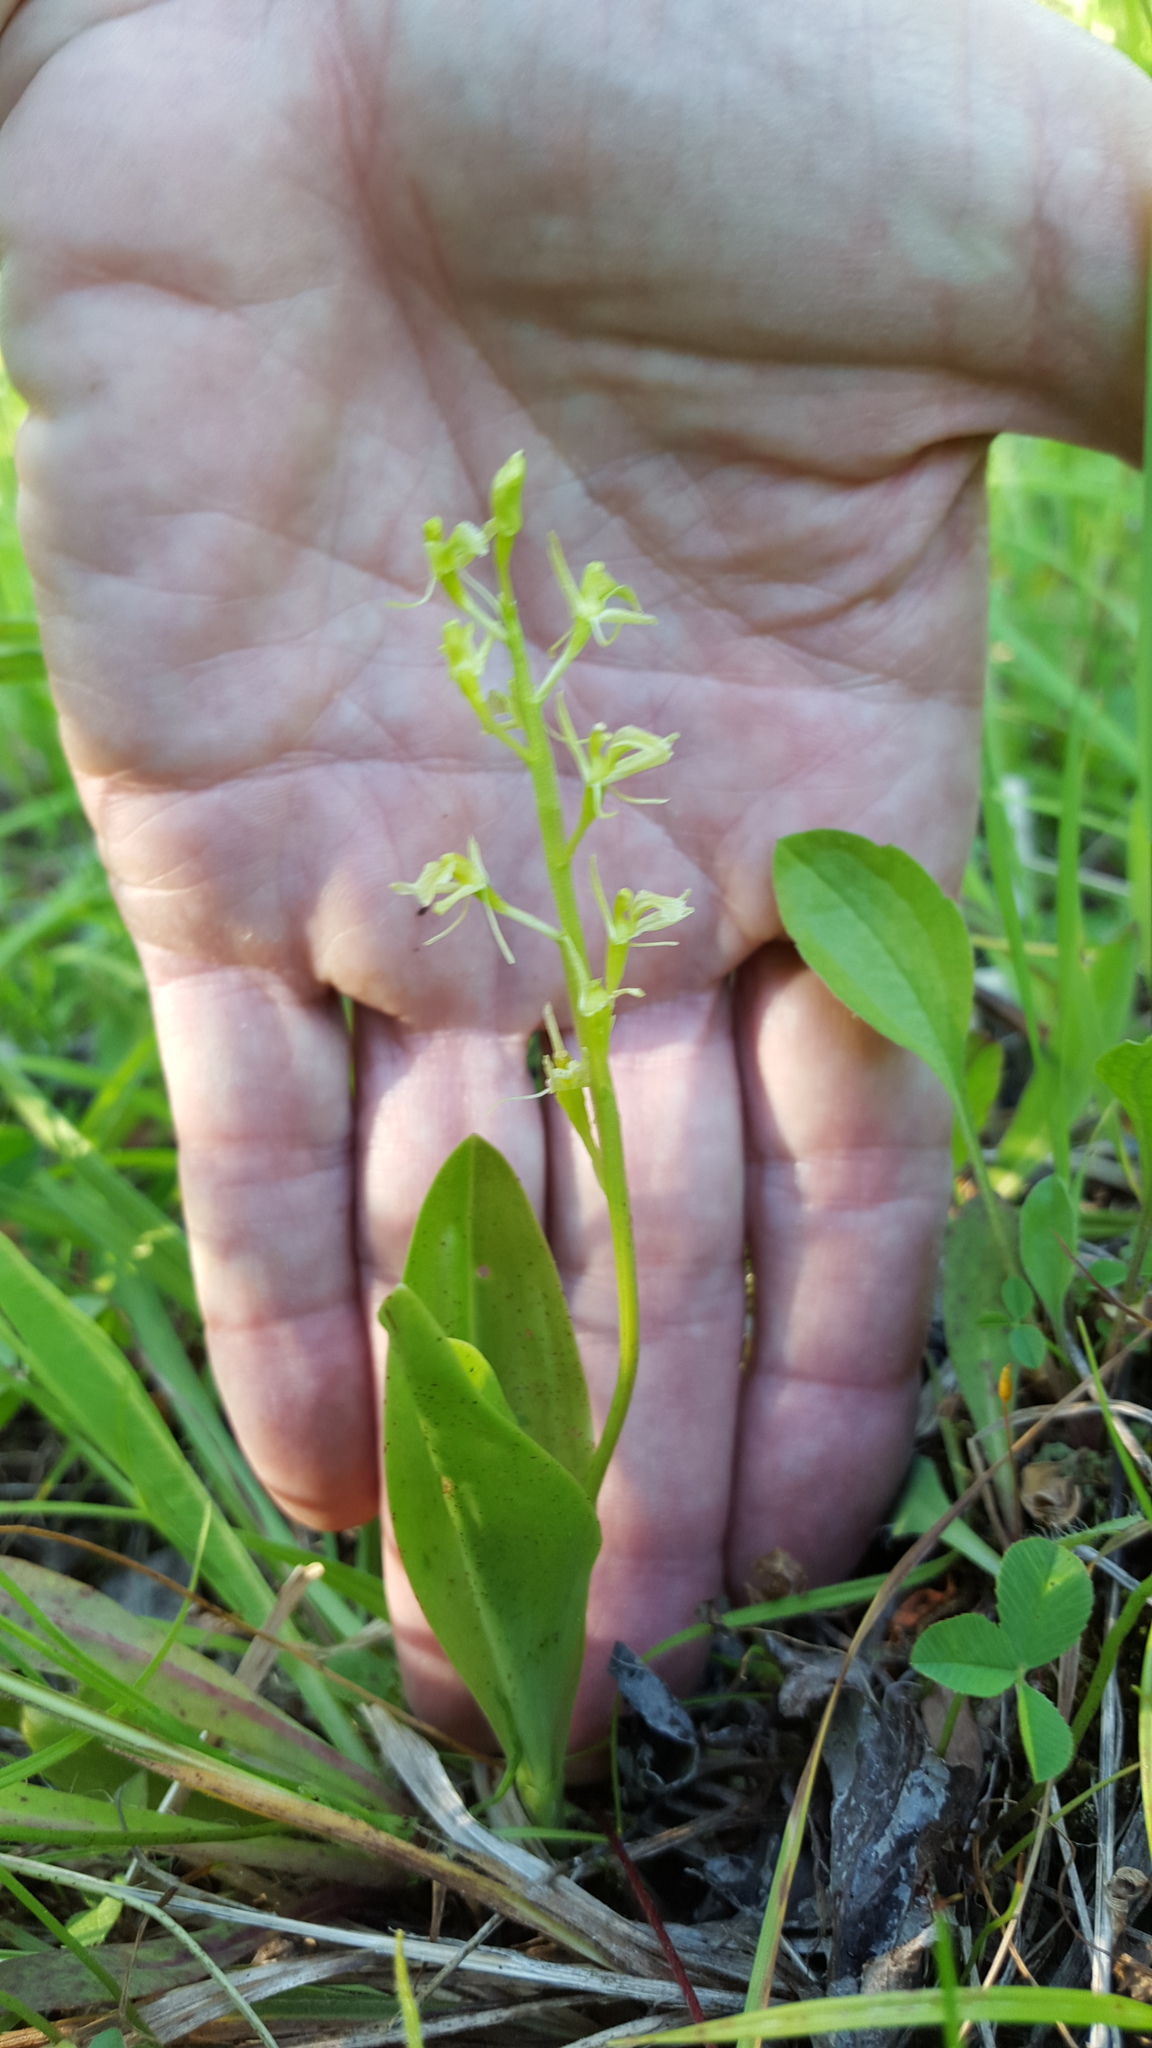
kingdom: Animalia
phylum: Arthropoda
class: Insecta
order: Coleoptera
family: Curculionidae
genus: Liparis
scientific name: Liparis loeselii
